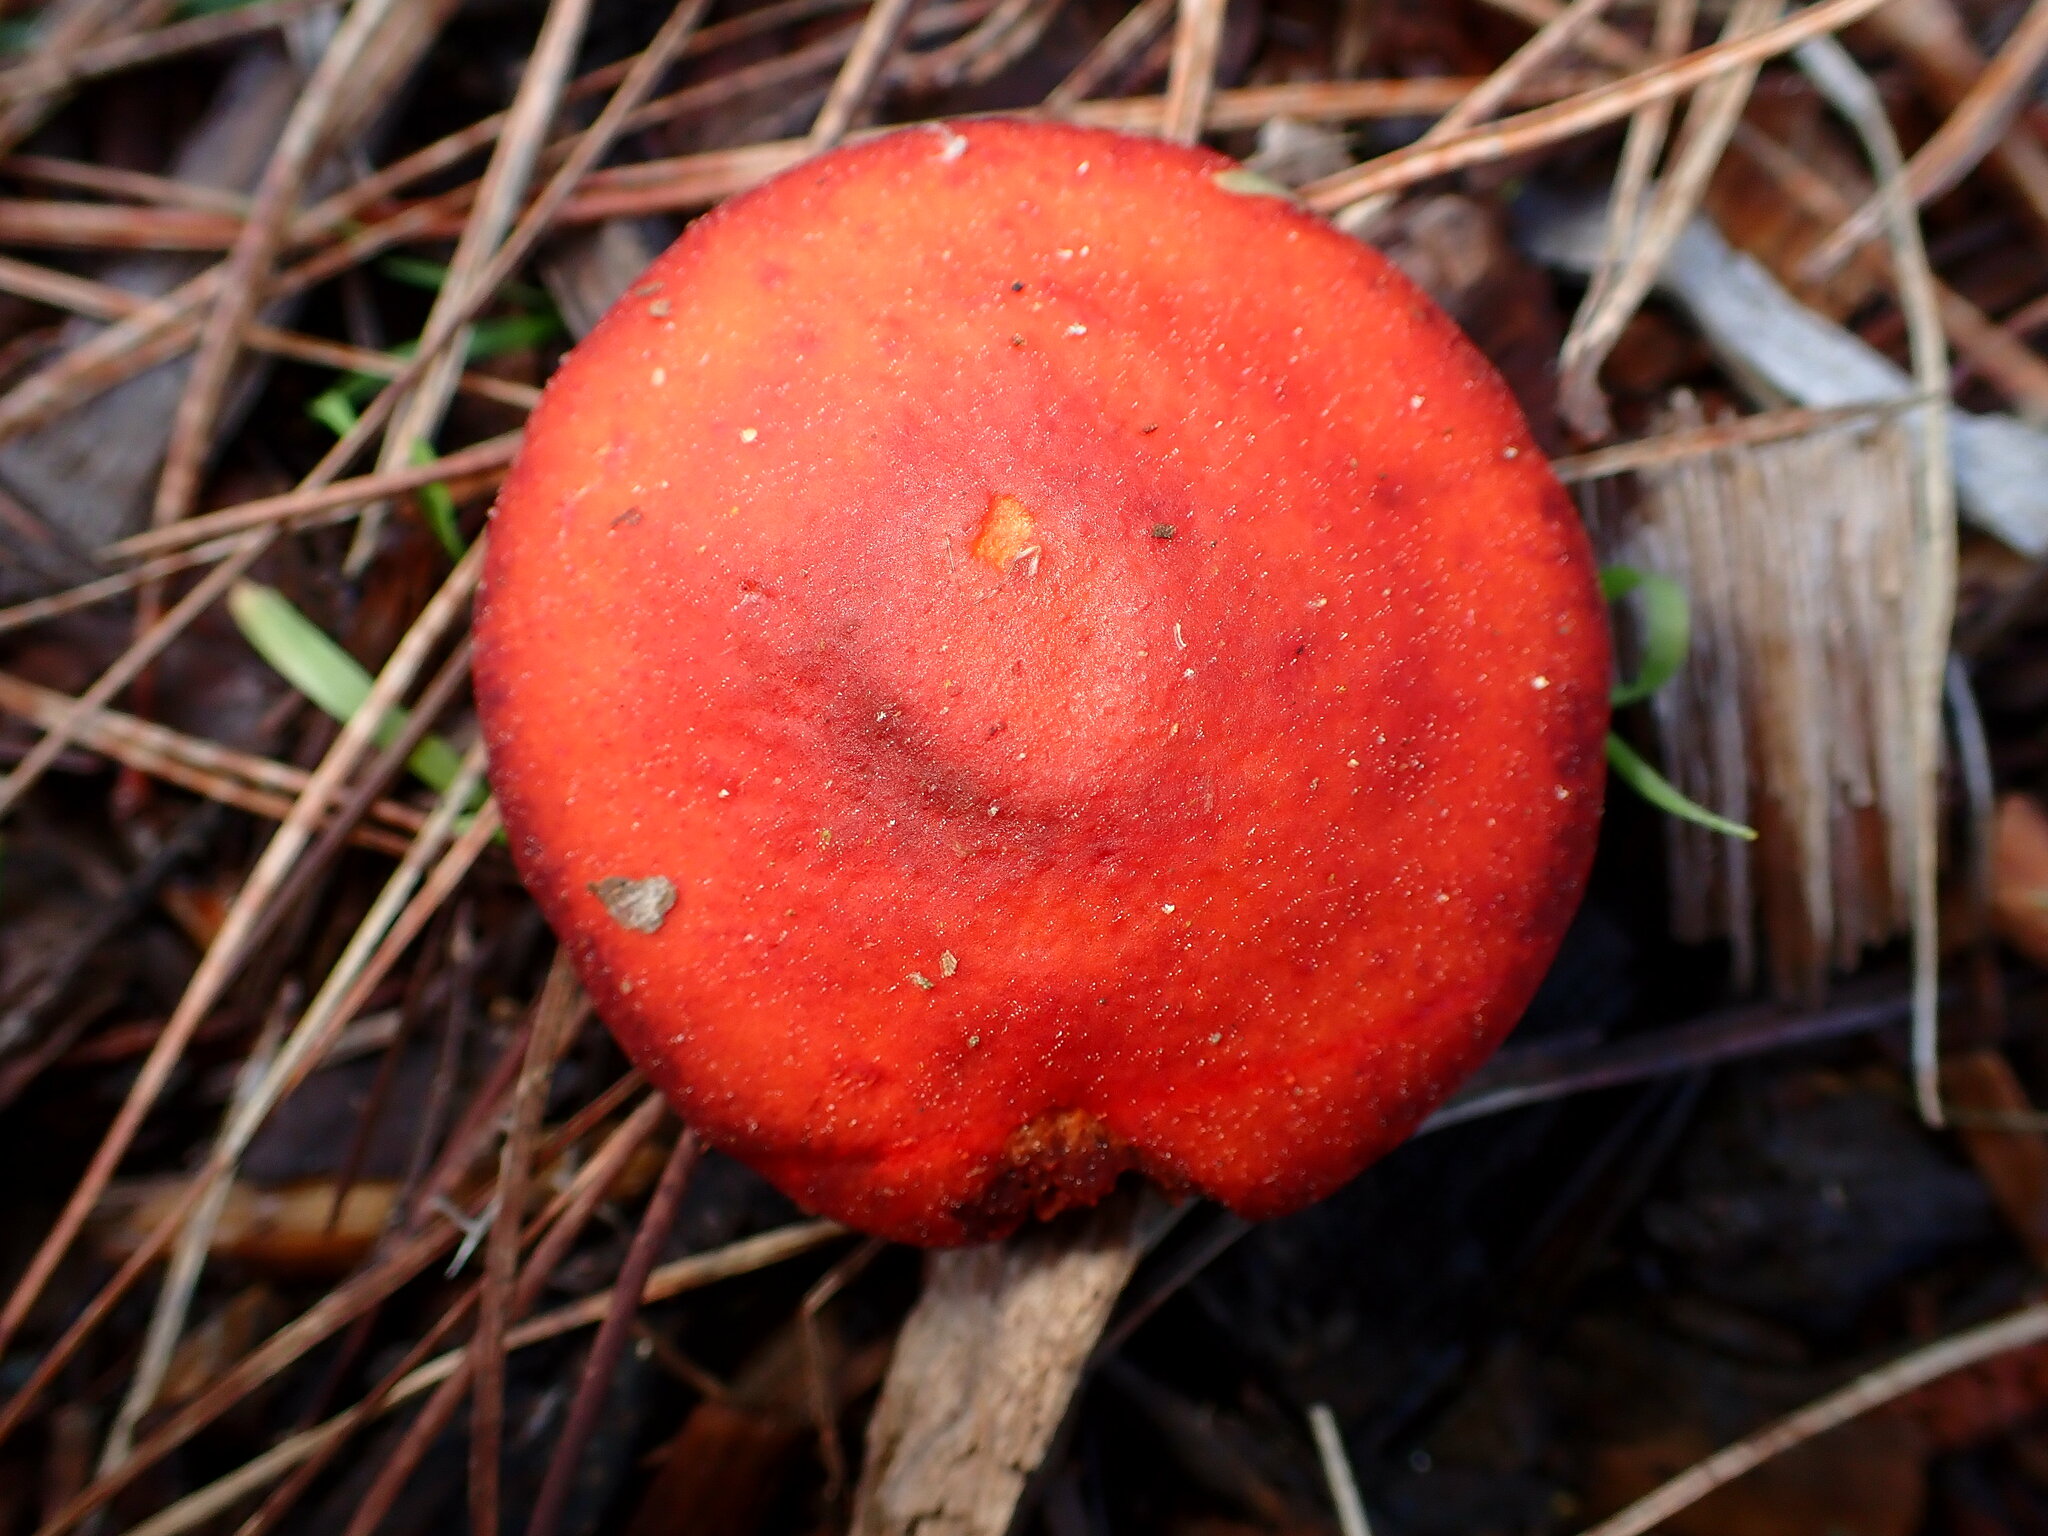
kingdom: Fungi
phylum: Basidiomycota
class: Agaricomycetes
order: Agaricales
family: Strophariaceae
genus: Leratiomyces
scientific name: Leratiomyces ceres
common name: Redlead roundhead
